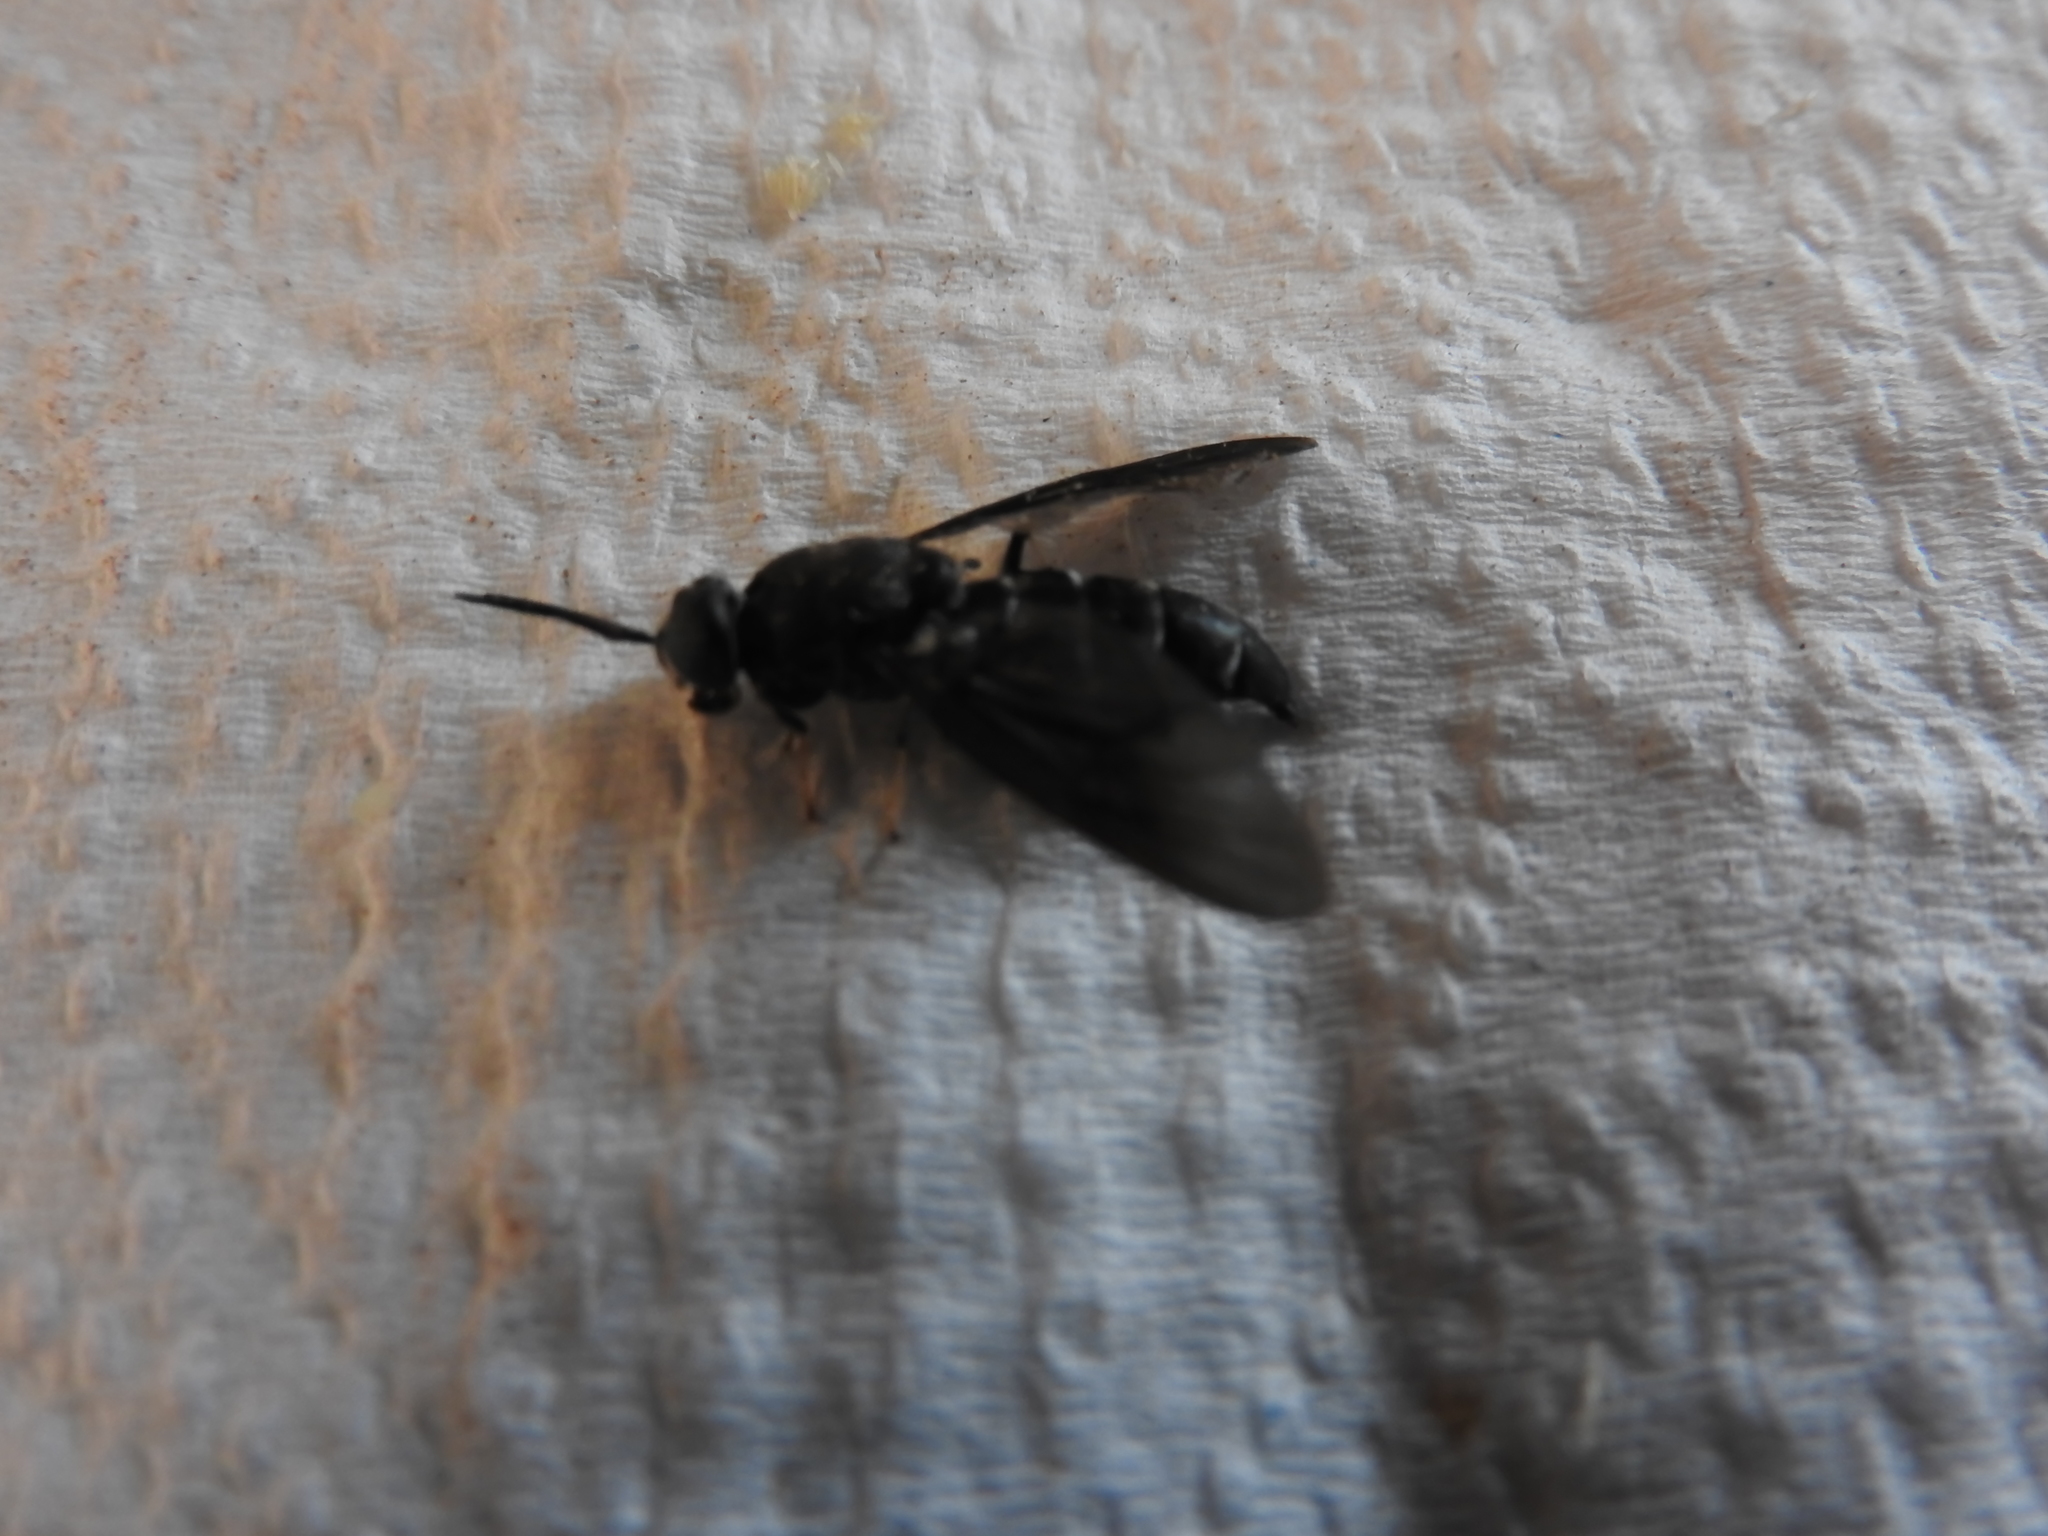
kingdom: Animalia
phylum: Arthropoda
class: Insecta
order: Diptera
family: Stratiomyidae
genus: Hermetia
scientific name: Hermetia illucens
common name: Black soldier fly
